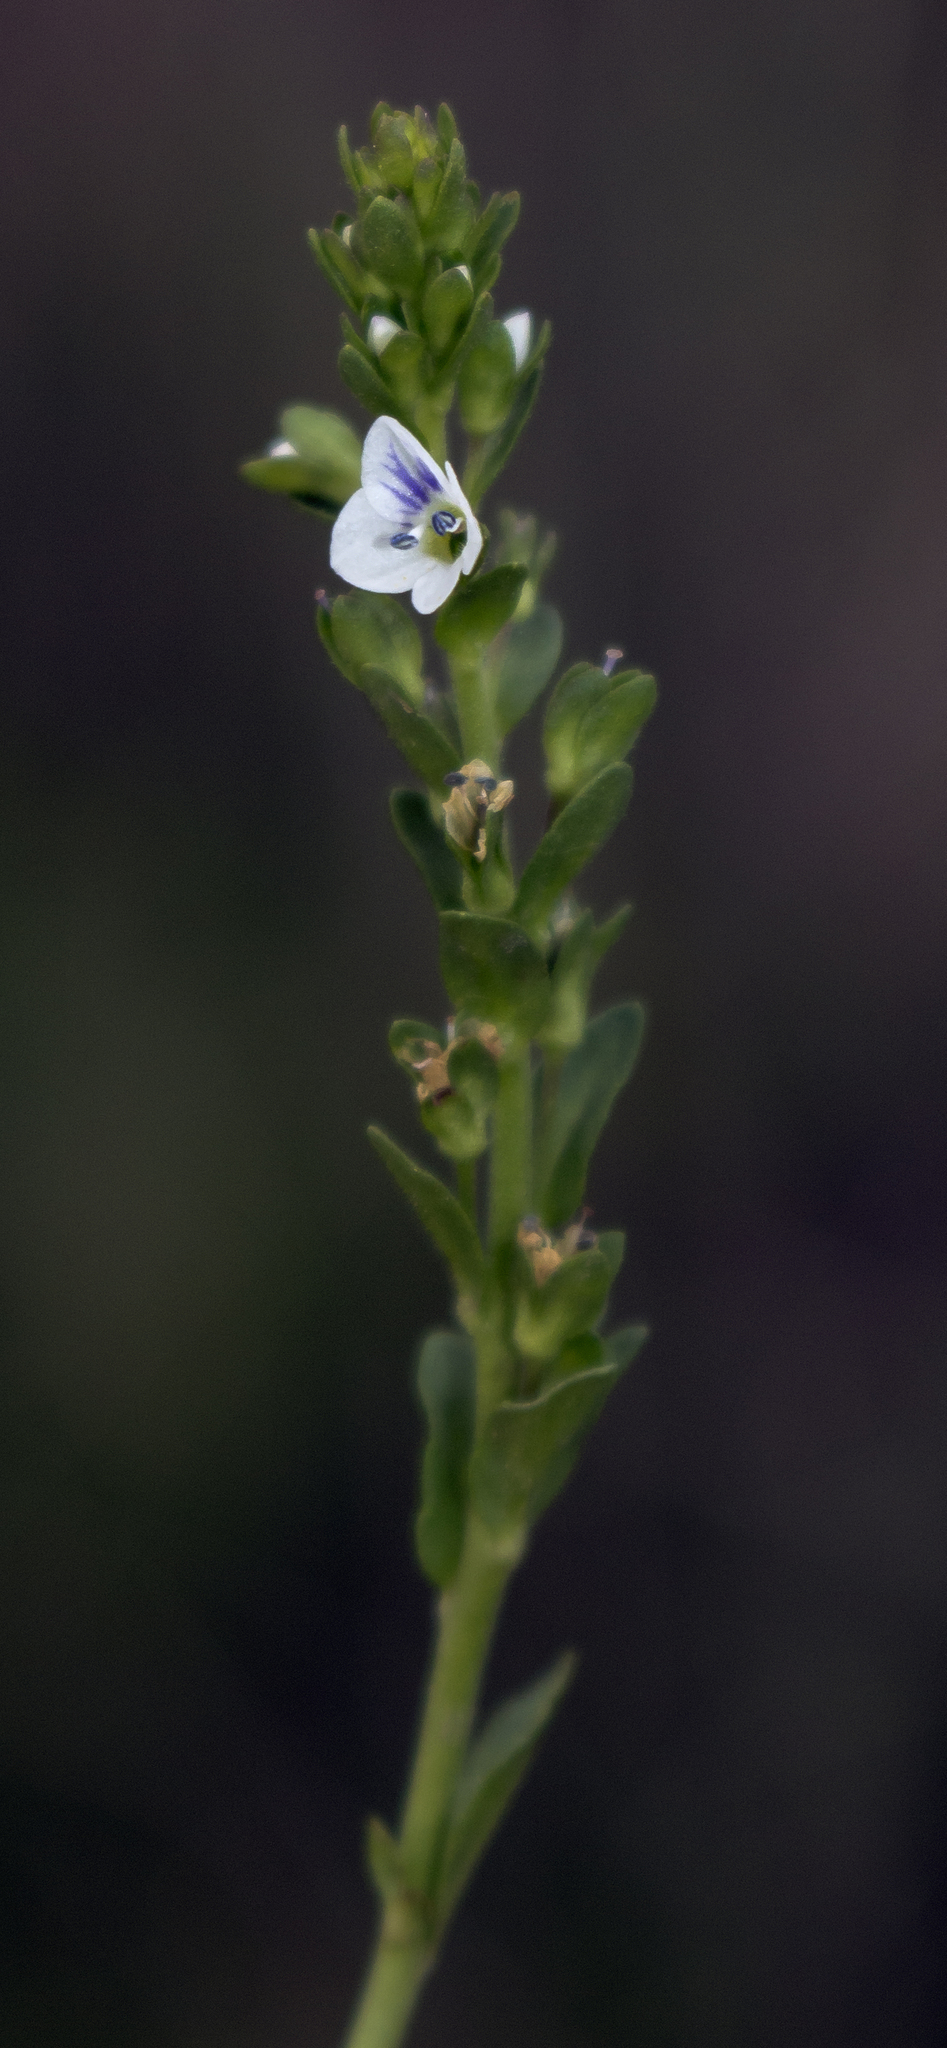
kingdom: Plantae
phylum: Tracheophyta
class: Magnoliopsida
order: Lamiales
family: Plantaginaceae
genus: Veronica
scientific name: Veronica serpyllifolia
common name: Thyme-leaved speedwell
